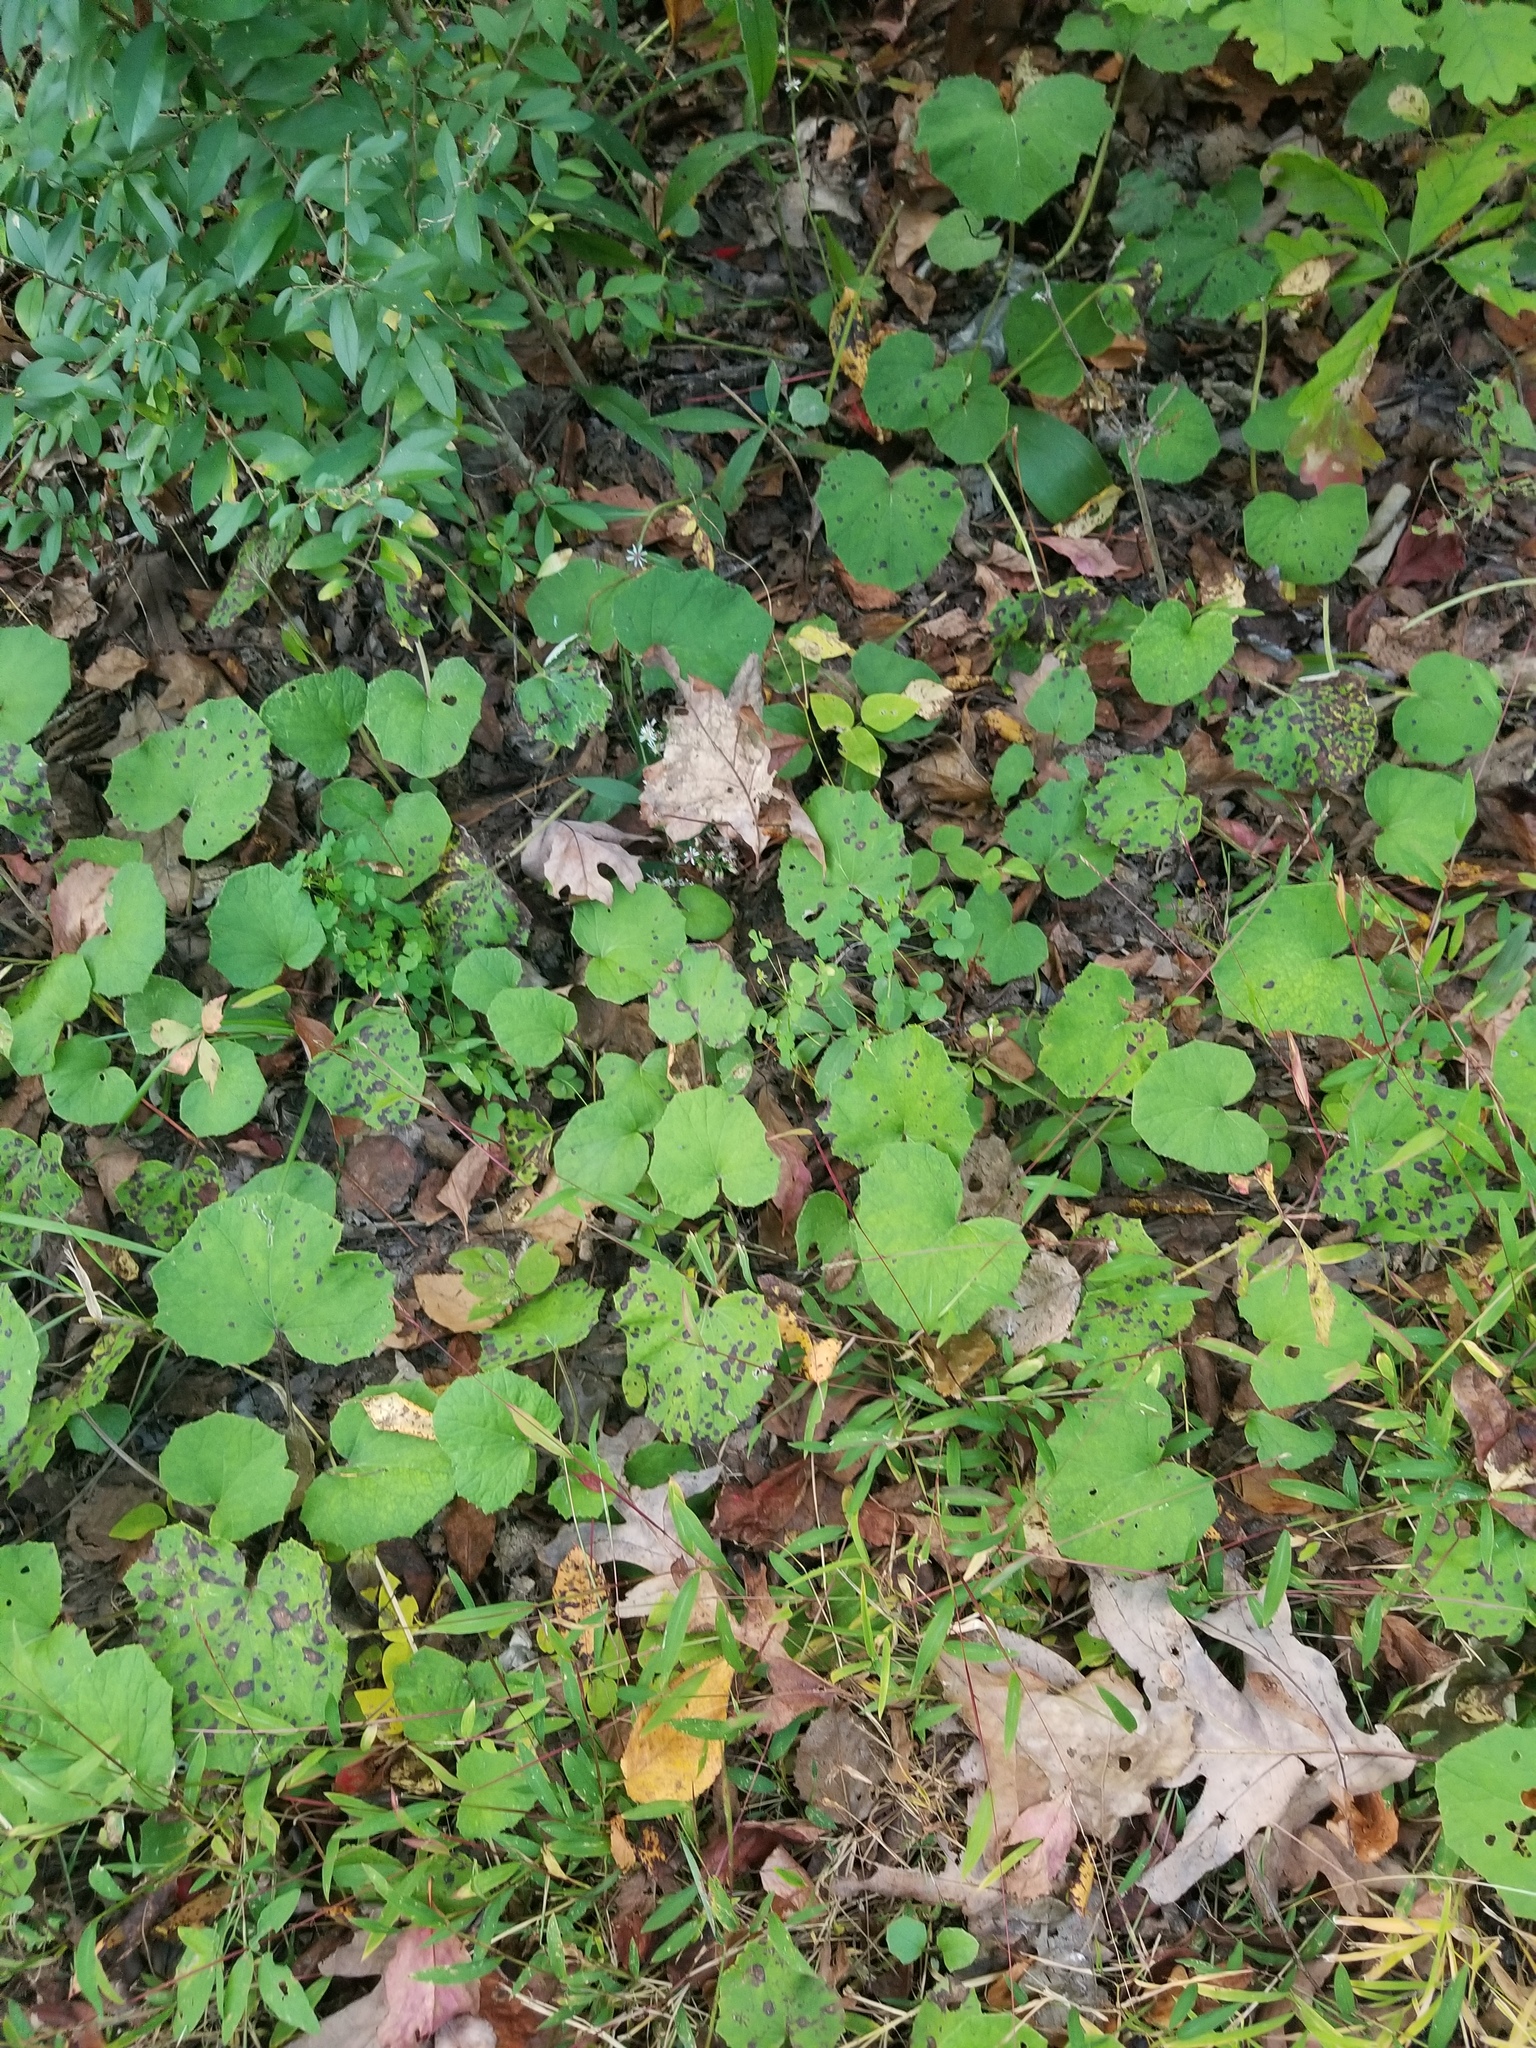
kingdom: Plantae
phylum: Tracheophyta
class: Magnoliopsida
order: Asterales
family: Asteraceae
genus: Tussilago
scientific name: Tussilago farfara
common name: Coltsfoot
